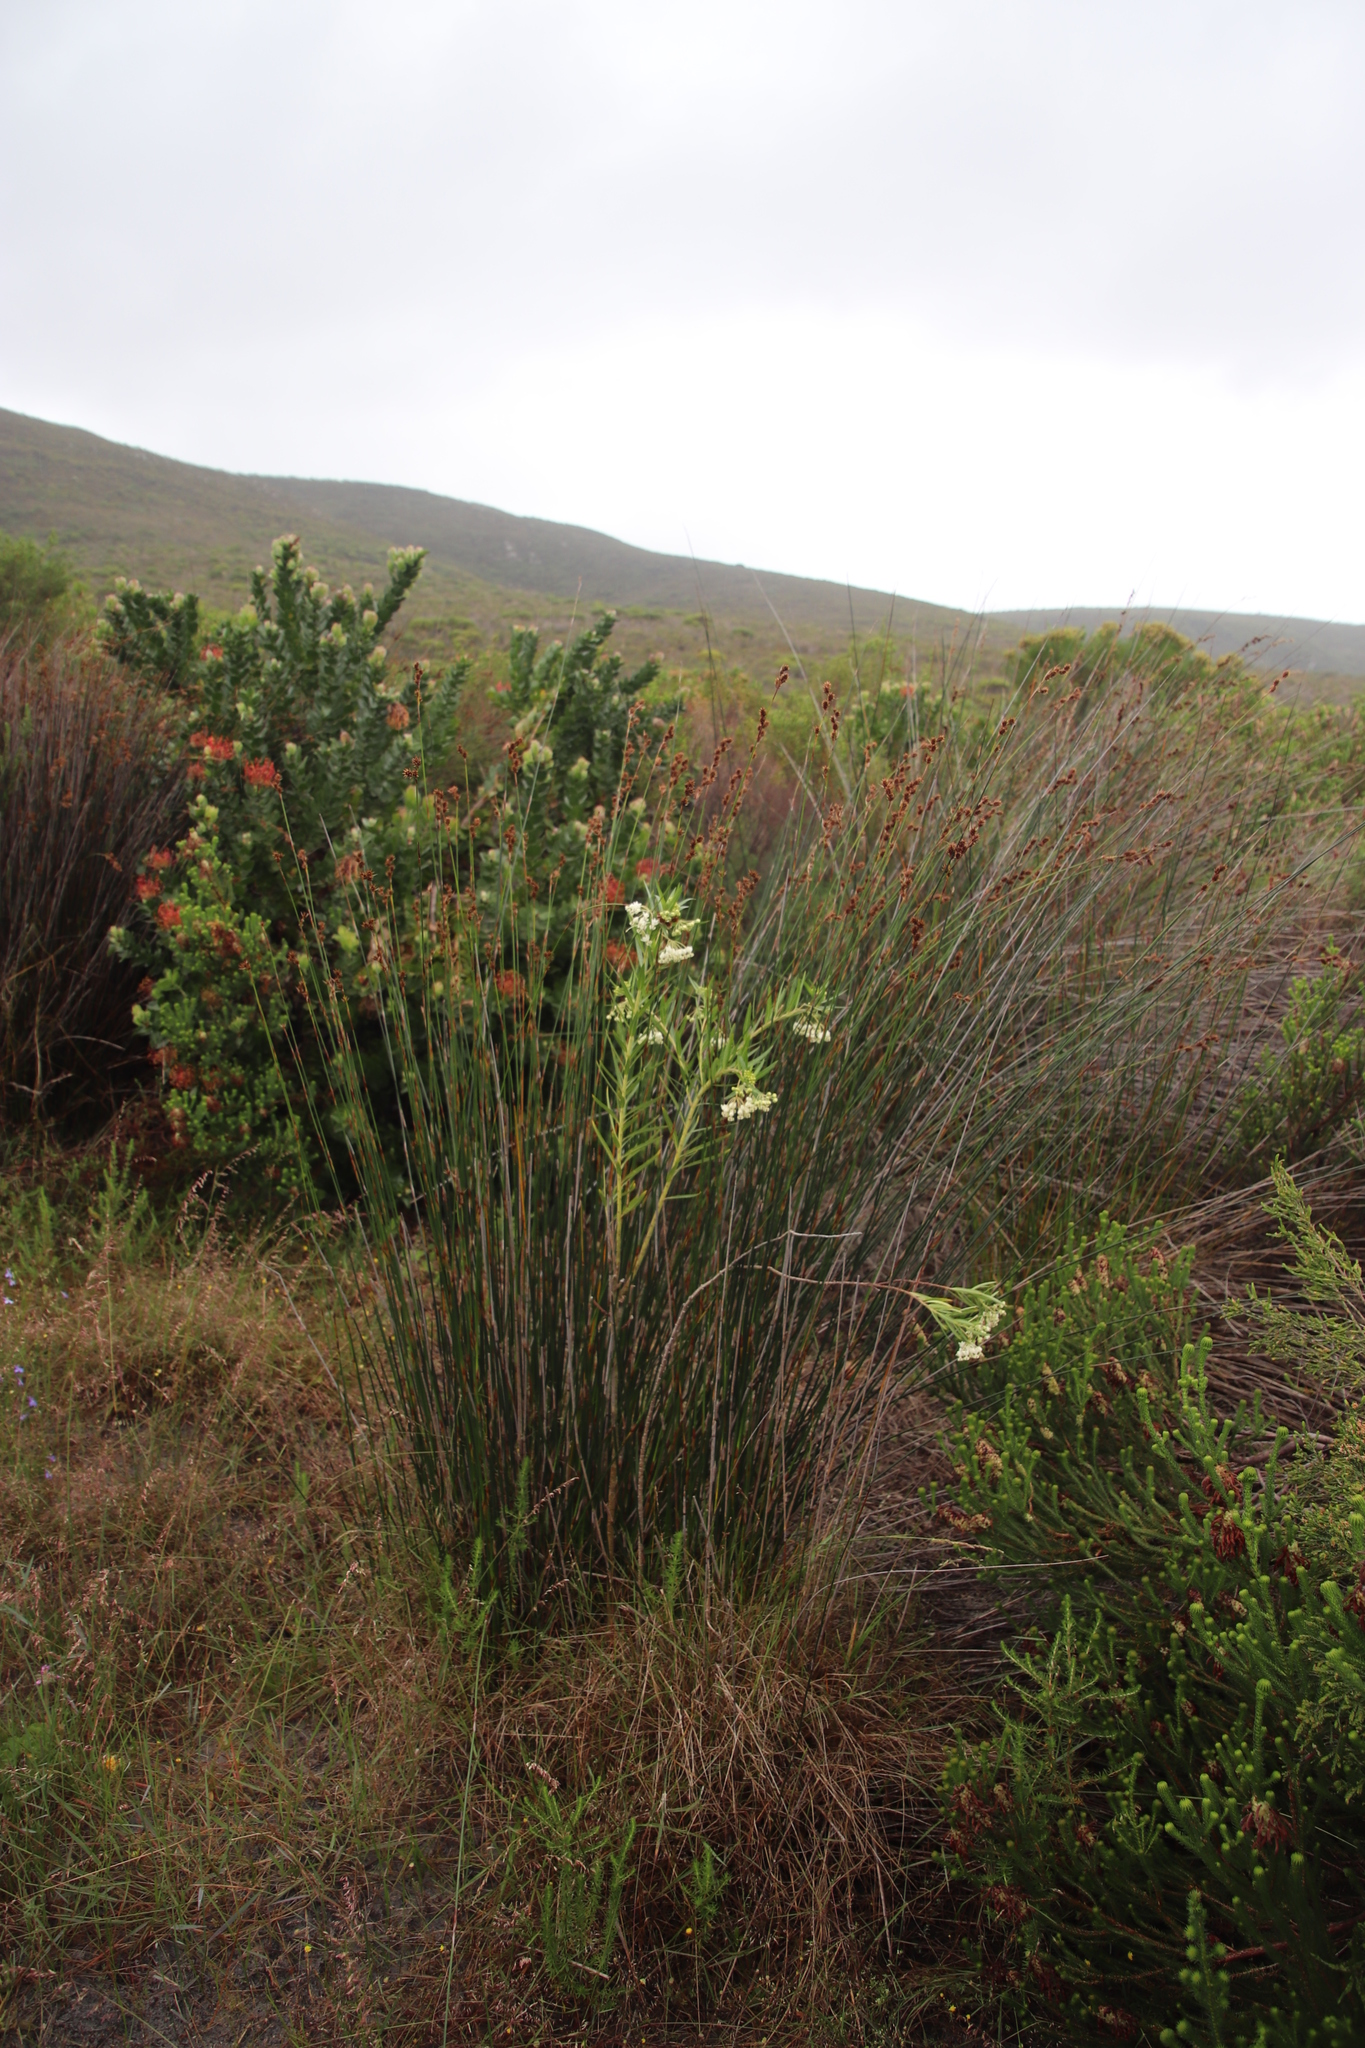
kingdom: Plantae
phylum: Tracheophyta
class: Magnoliopsida
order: Gentianales
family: Apocynaceae
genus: Gomphocarpus
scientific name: Gomphocarpus fruticosus
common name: Milkweed
